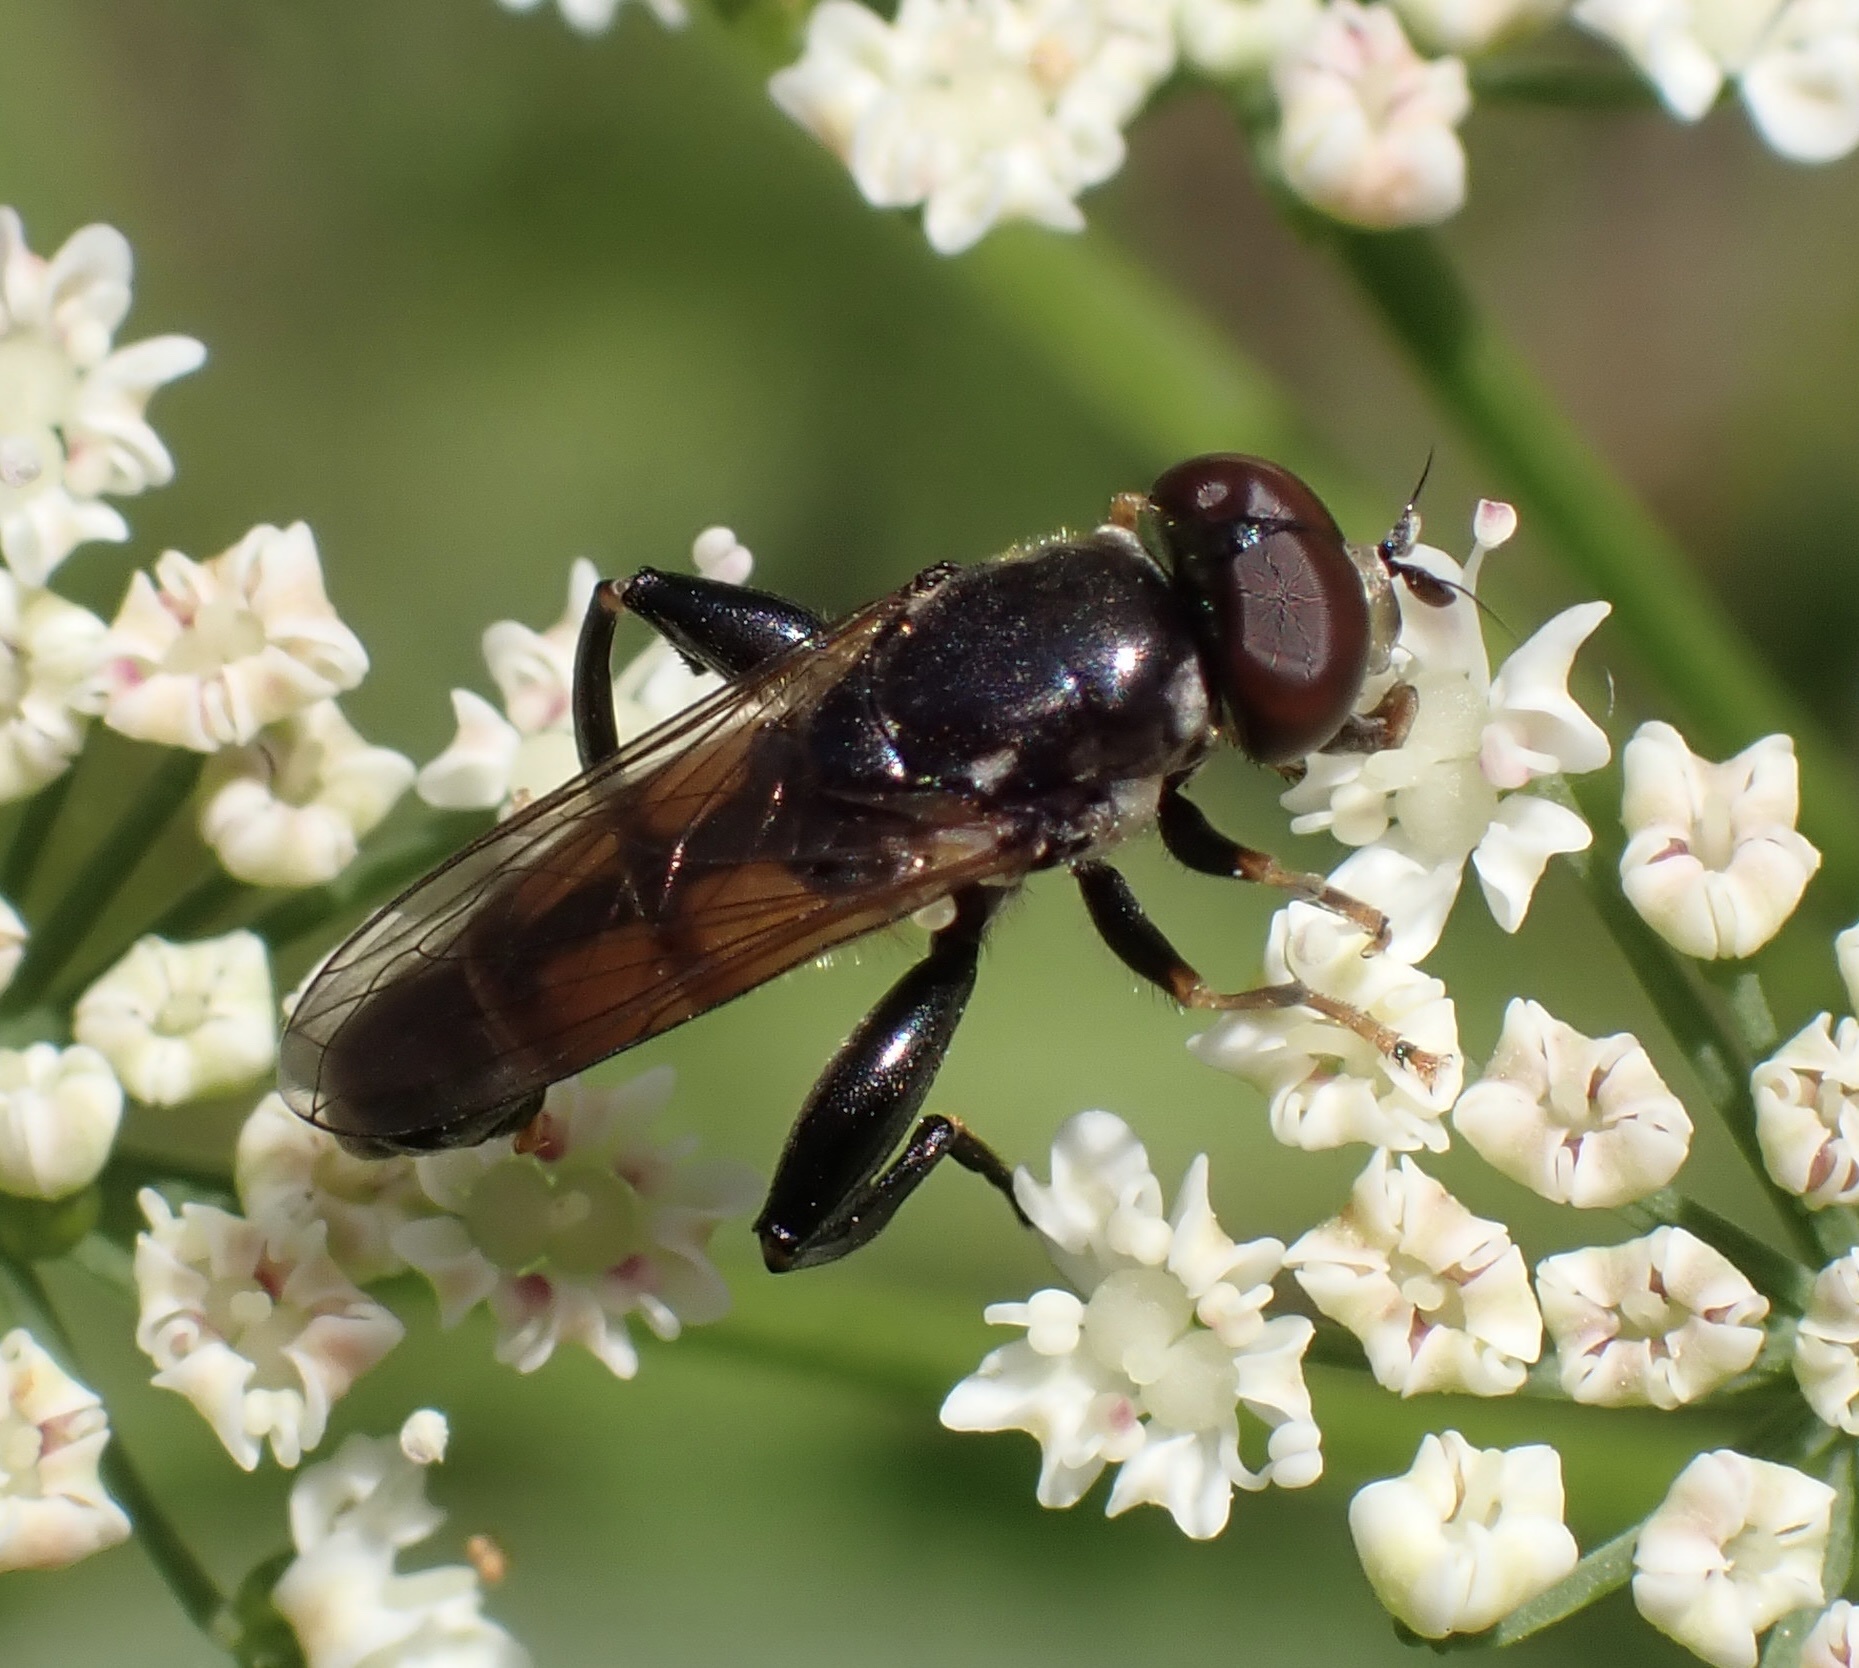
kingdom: Animalia
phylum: Arthropoda
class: Insecta
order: Diptera
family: Syrphidae
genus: Tropidia
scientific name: Tropidia scita
